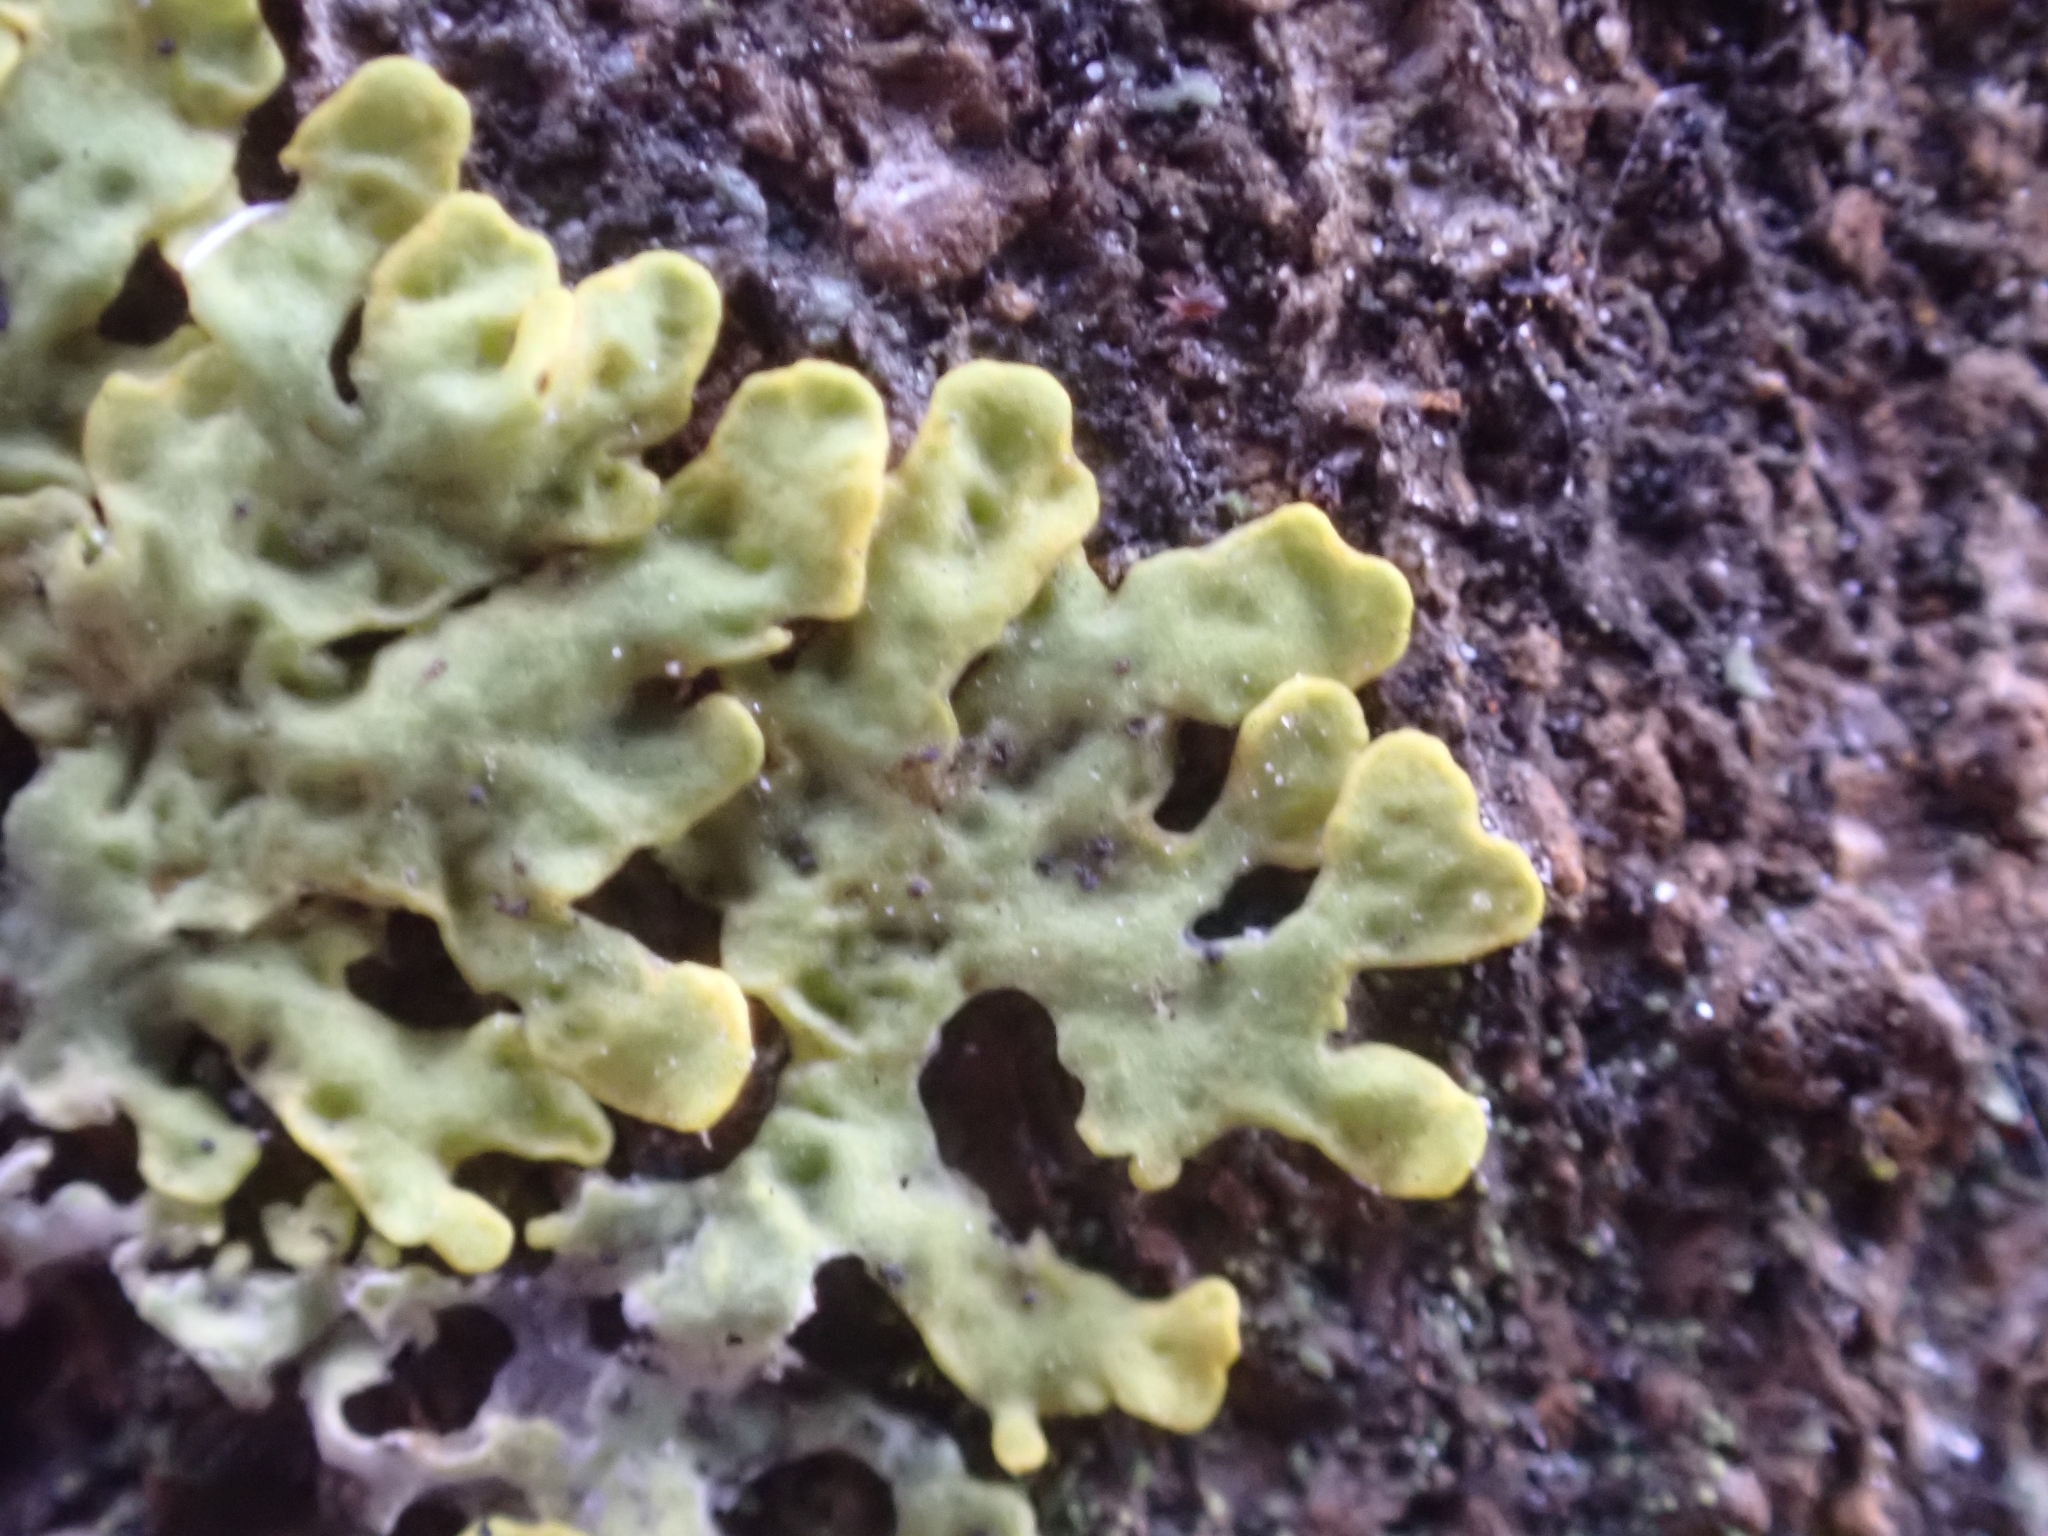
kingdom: Fungi
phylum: Ascomycota
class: Lecanoromycetes
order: Teloschistales
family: Teloschistaceae
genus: Xanthoria
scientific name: Xanthoria parietina
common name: Common orange lichen
